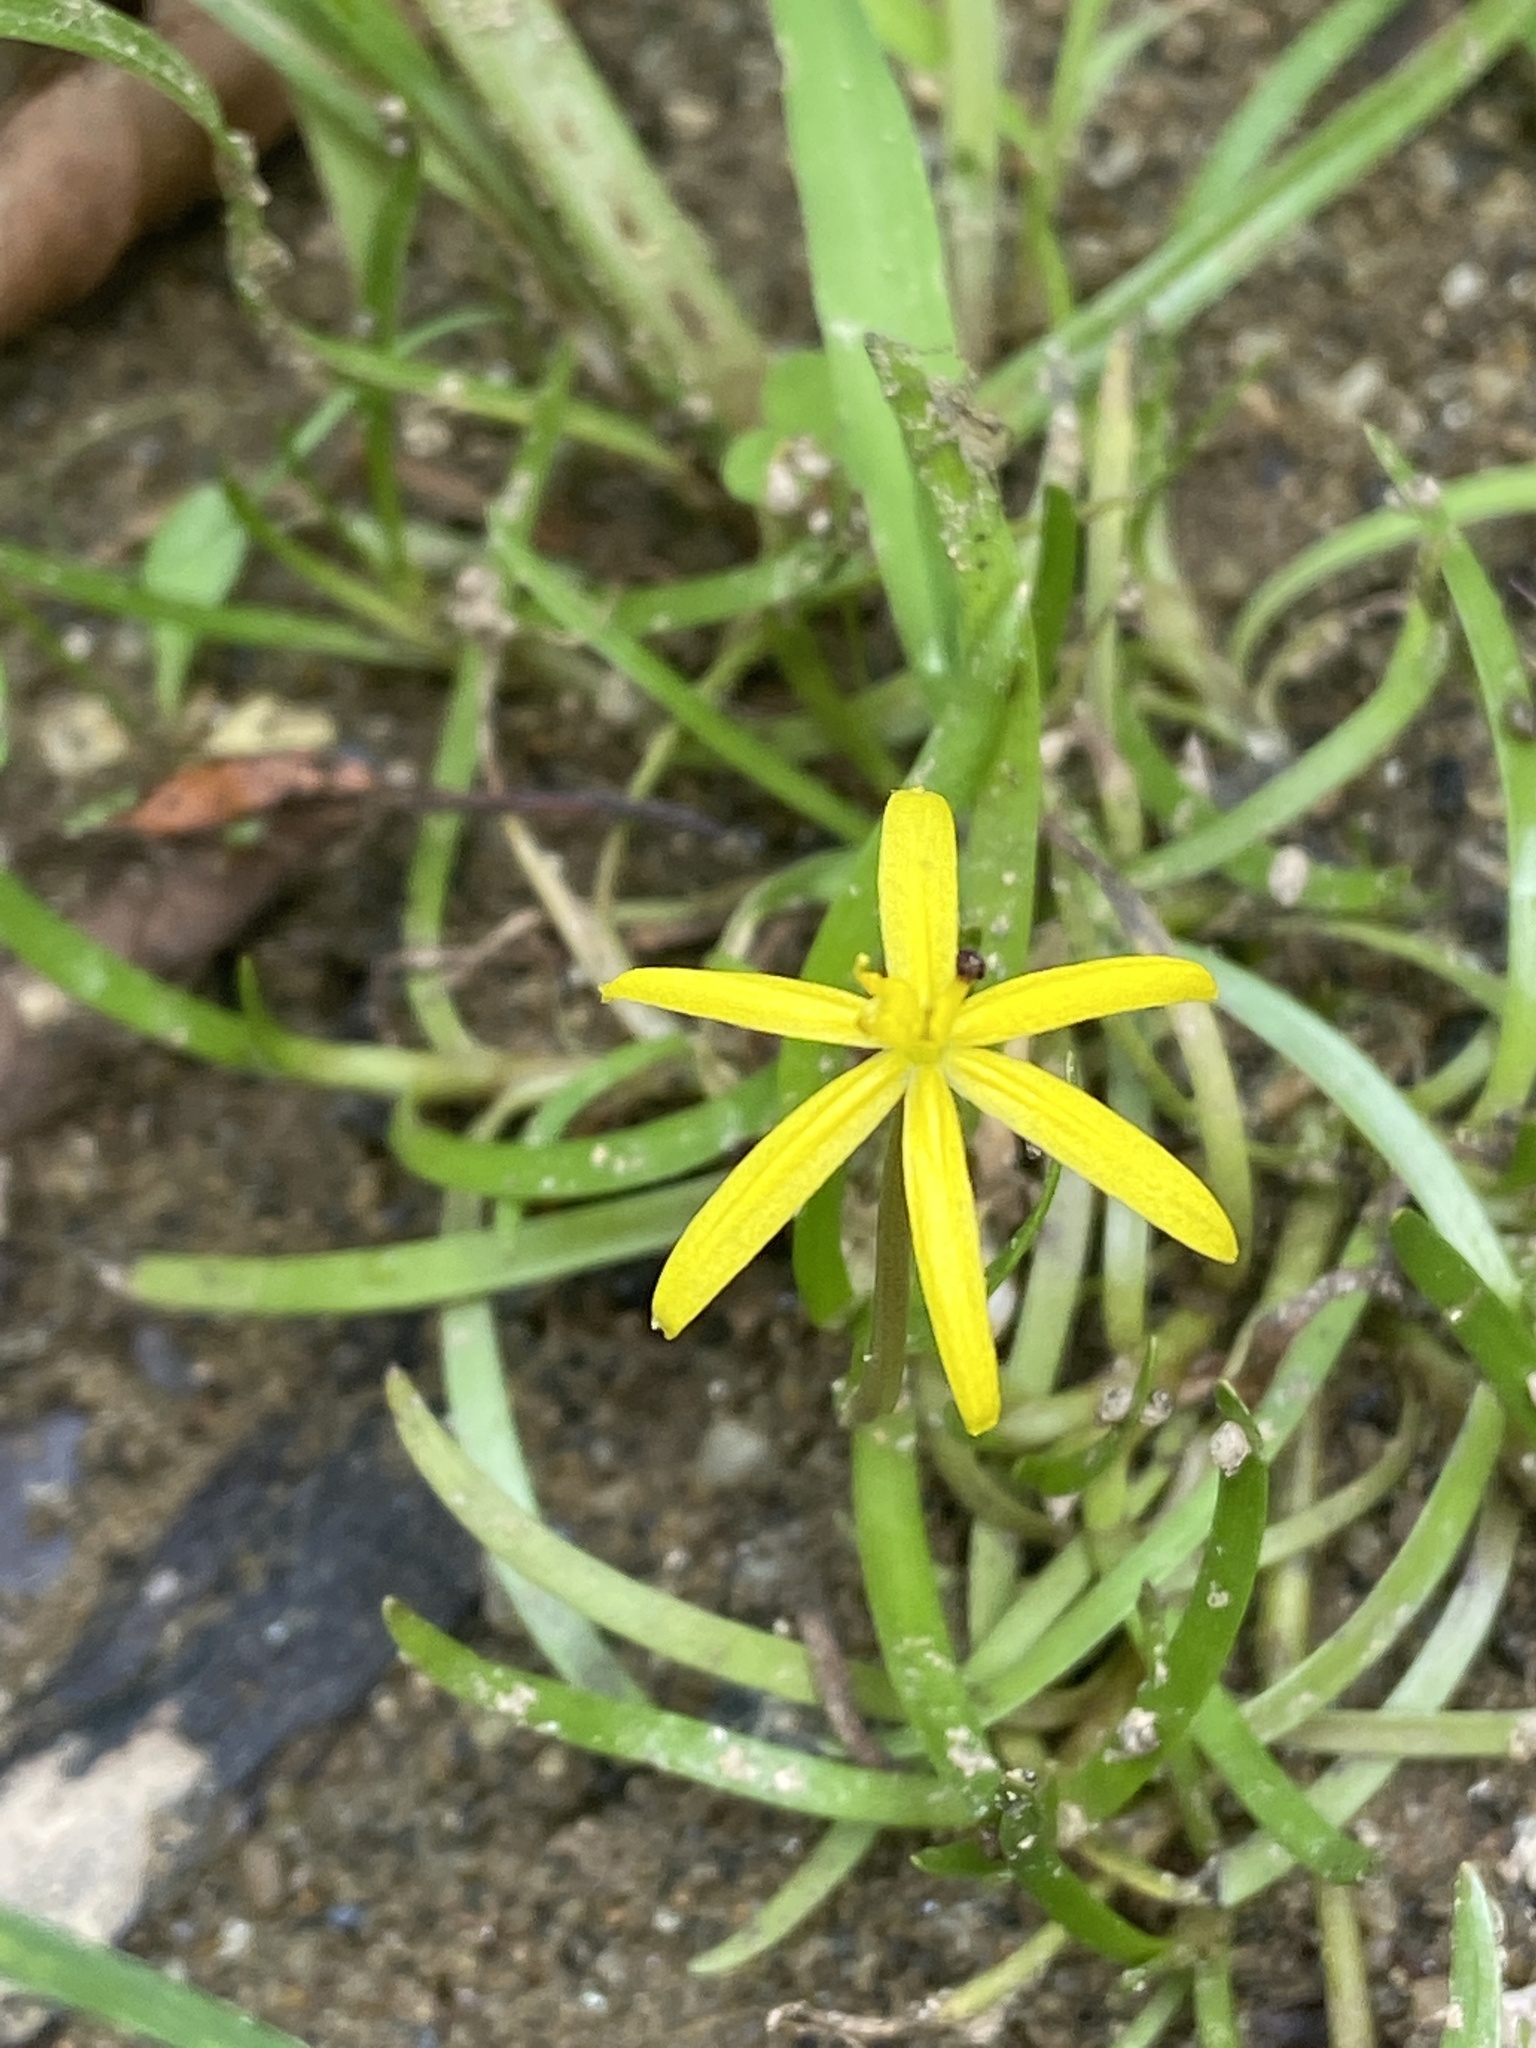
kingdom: Plantae
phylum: Tracheophyta
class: Liliopsida
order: Commelinales
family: Pontederiaceae
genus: Heteranthera
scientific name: Heteranthera dubia
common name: Grass-leaved mud plantain
